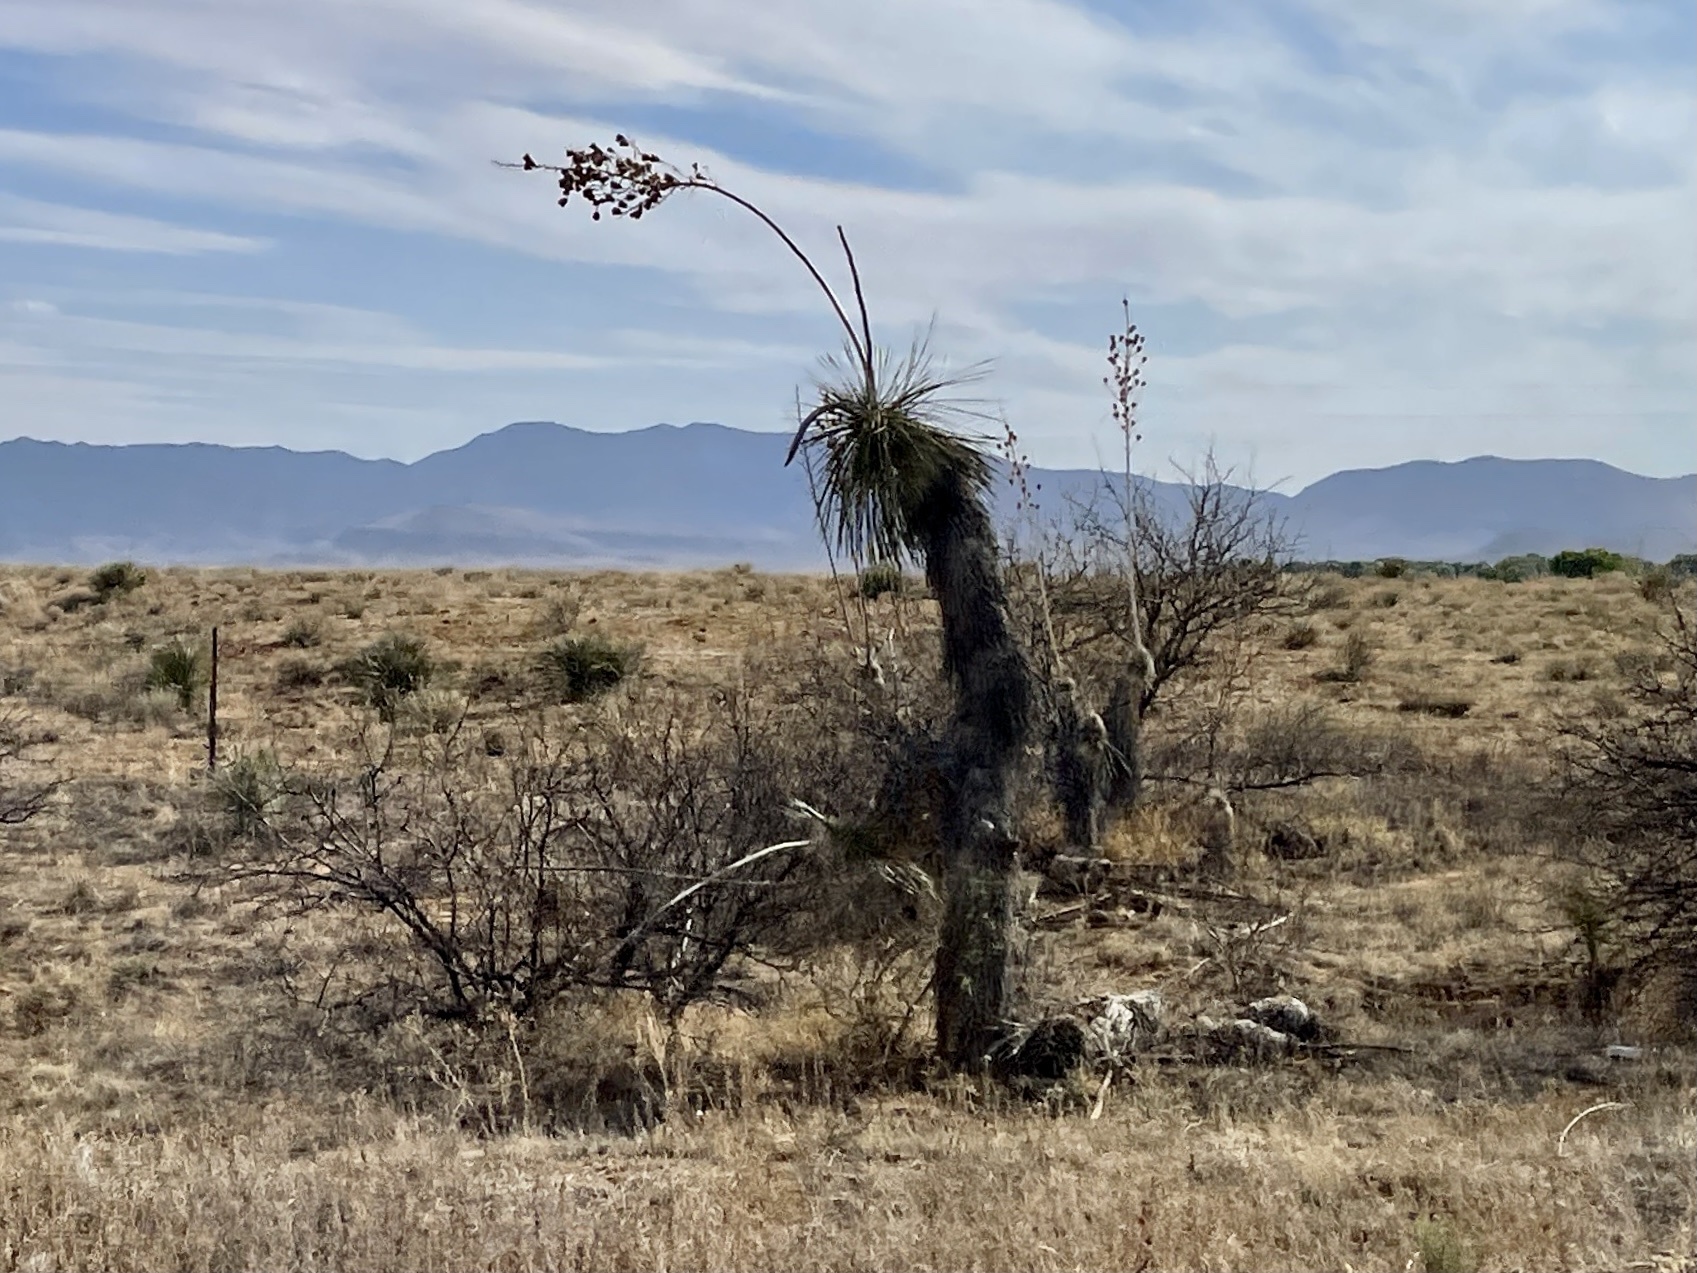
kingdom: Plantae
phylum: Tracheophyta
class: Liliopsida
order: Asparagales
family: Asparagaceae
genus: Yucca
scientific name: Yucca elata
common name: Palmella
